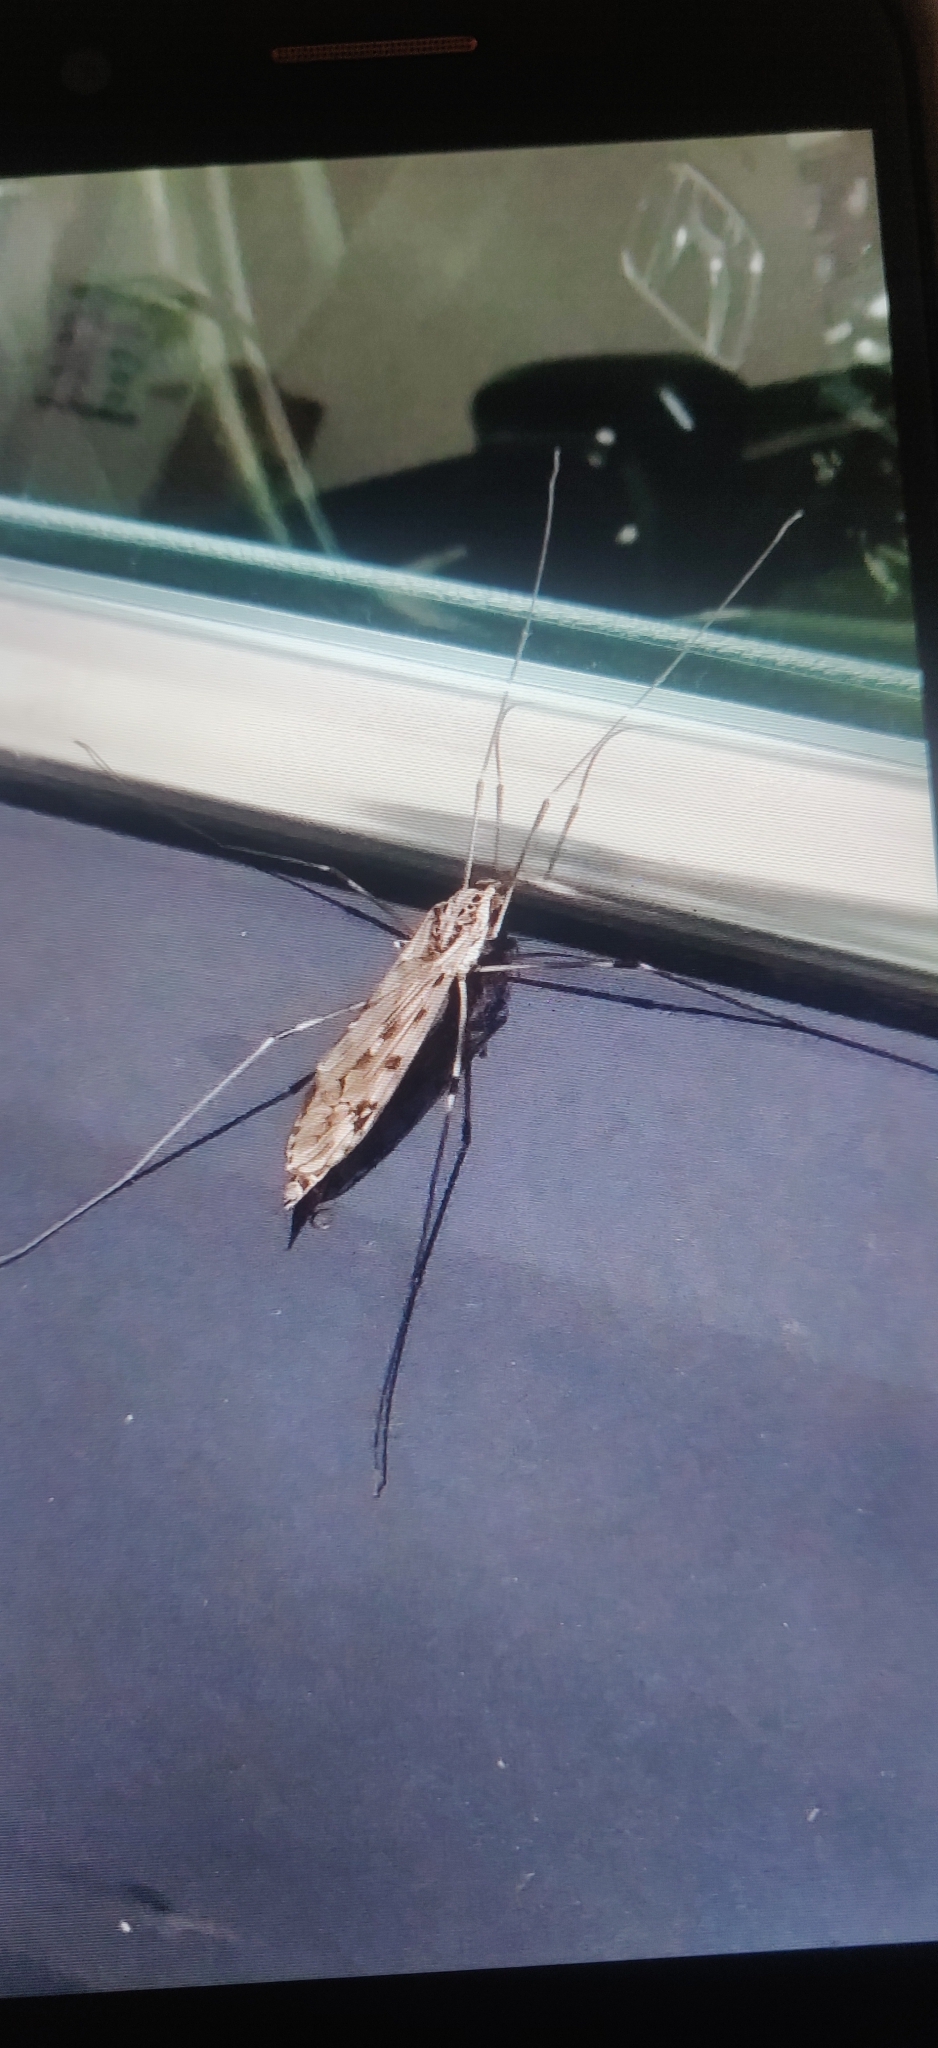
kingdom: Animalia
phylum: Arthropoda
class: Insecta
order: Diptera
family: Tipulidae
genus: Tipula
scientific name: Tipula abdominalis
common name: Giant crane fly
